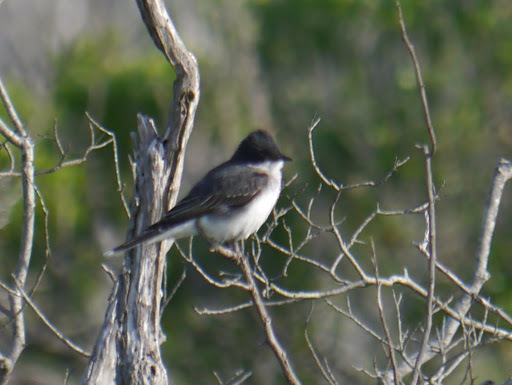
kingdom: Animalia
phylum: Chordata
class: Aves
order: Passeriformes
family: Tyrannidae
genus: Tyrannus
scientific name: Tyrannus tyrannus
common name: Eastern kingbird
